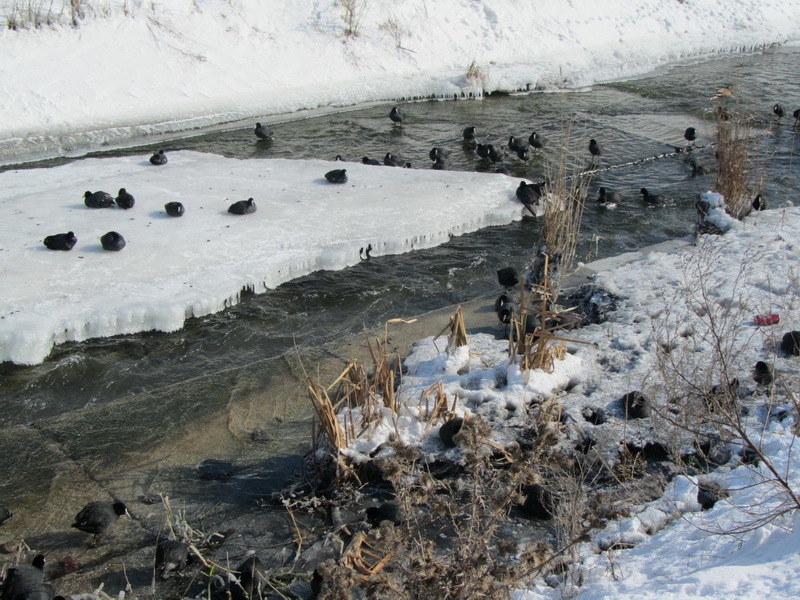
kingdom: Animalia
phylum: Chordata
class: Aves
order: Gruiformes
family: Rallidae
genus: Fulica
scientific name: Fulica atra
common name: Eurasian coot
